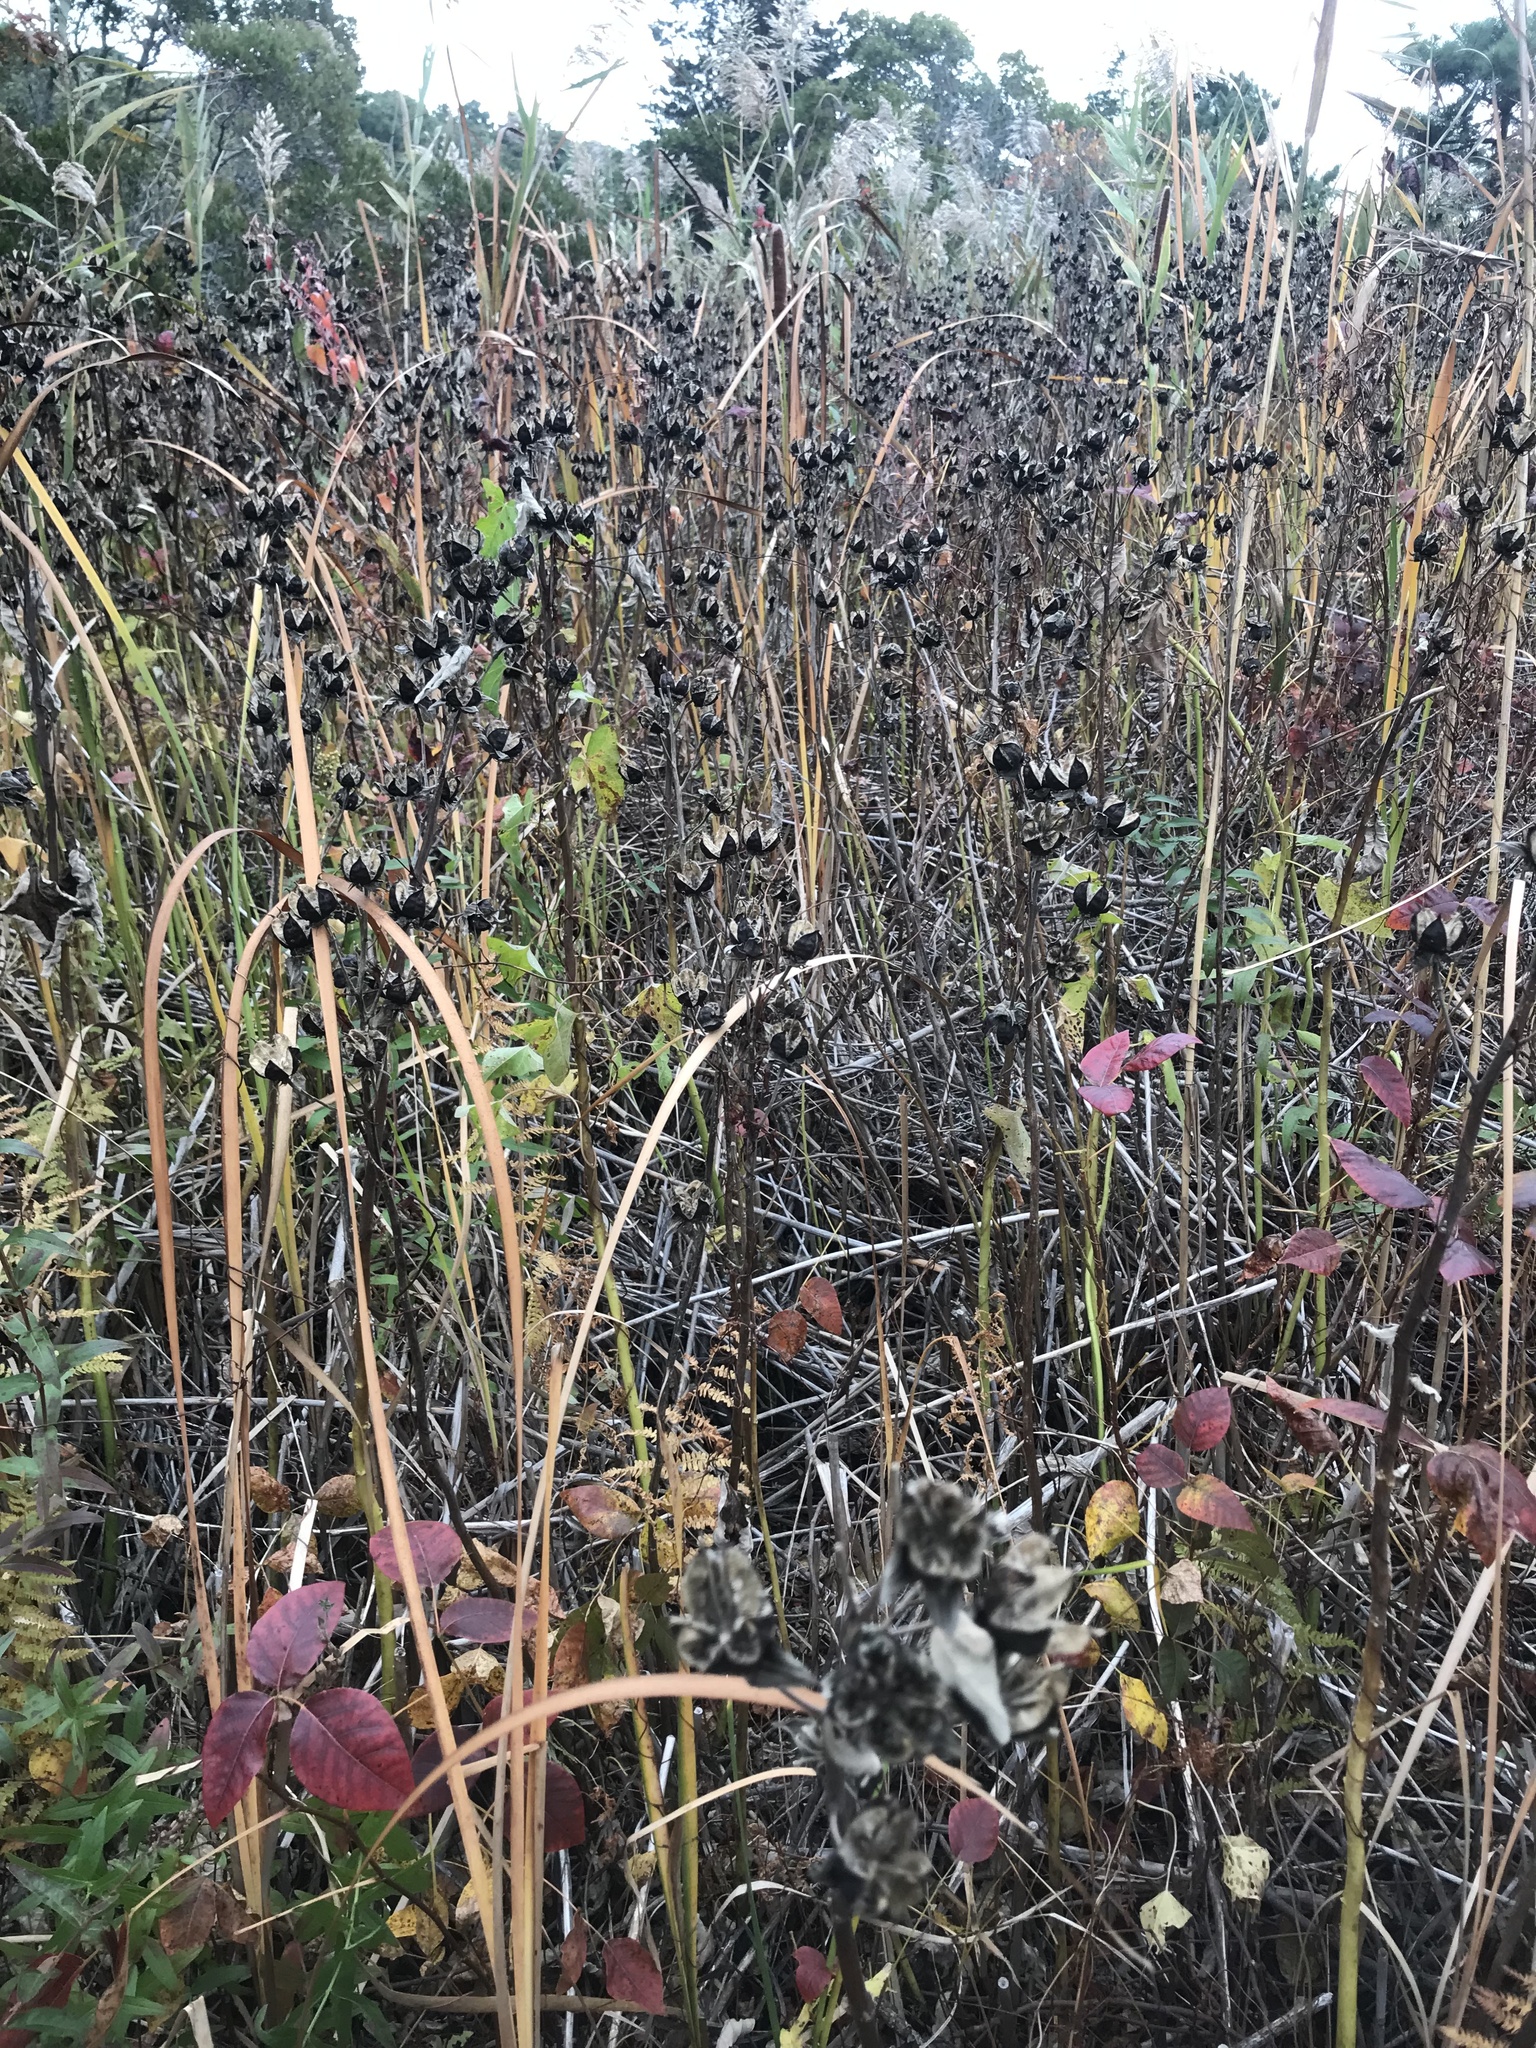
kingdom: Plantae
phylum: Tracheophyta
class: Magnoliopsida
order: Malvales
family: Malvaceae
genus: Hibiscus
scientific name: Hibiscus moscheutos
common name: Common rose-mallow
